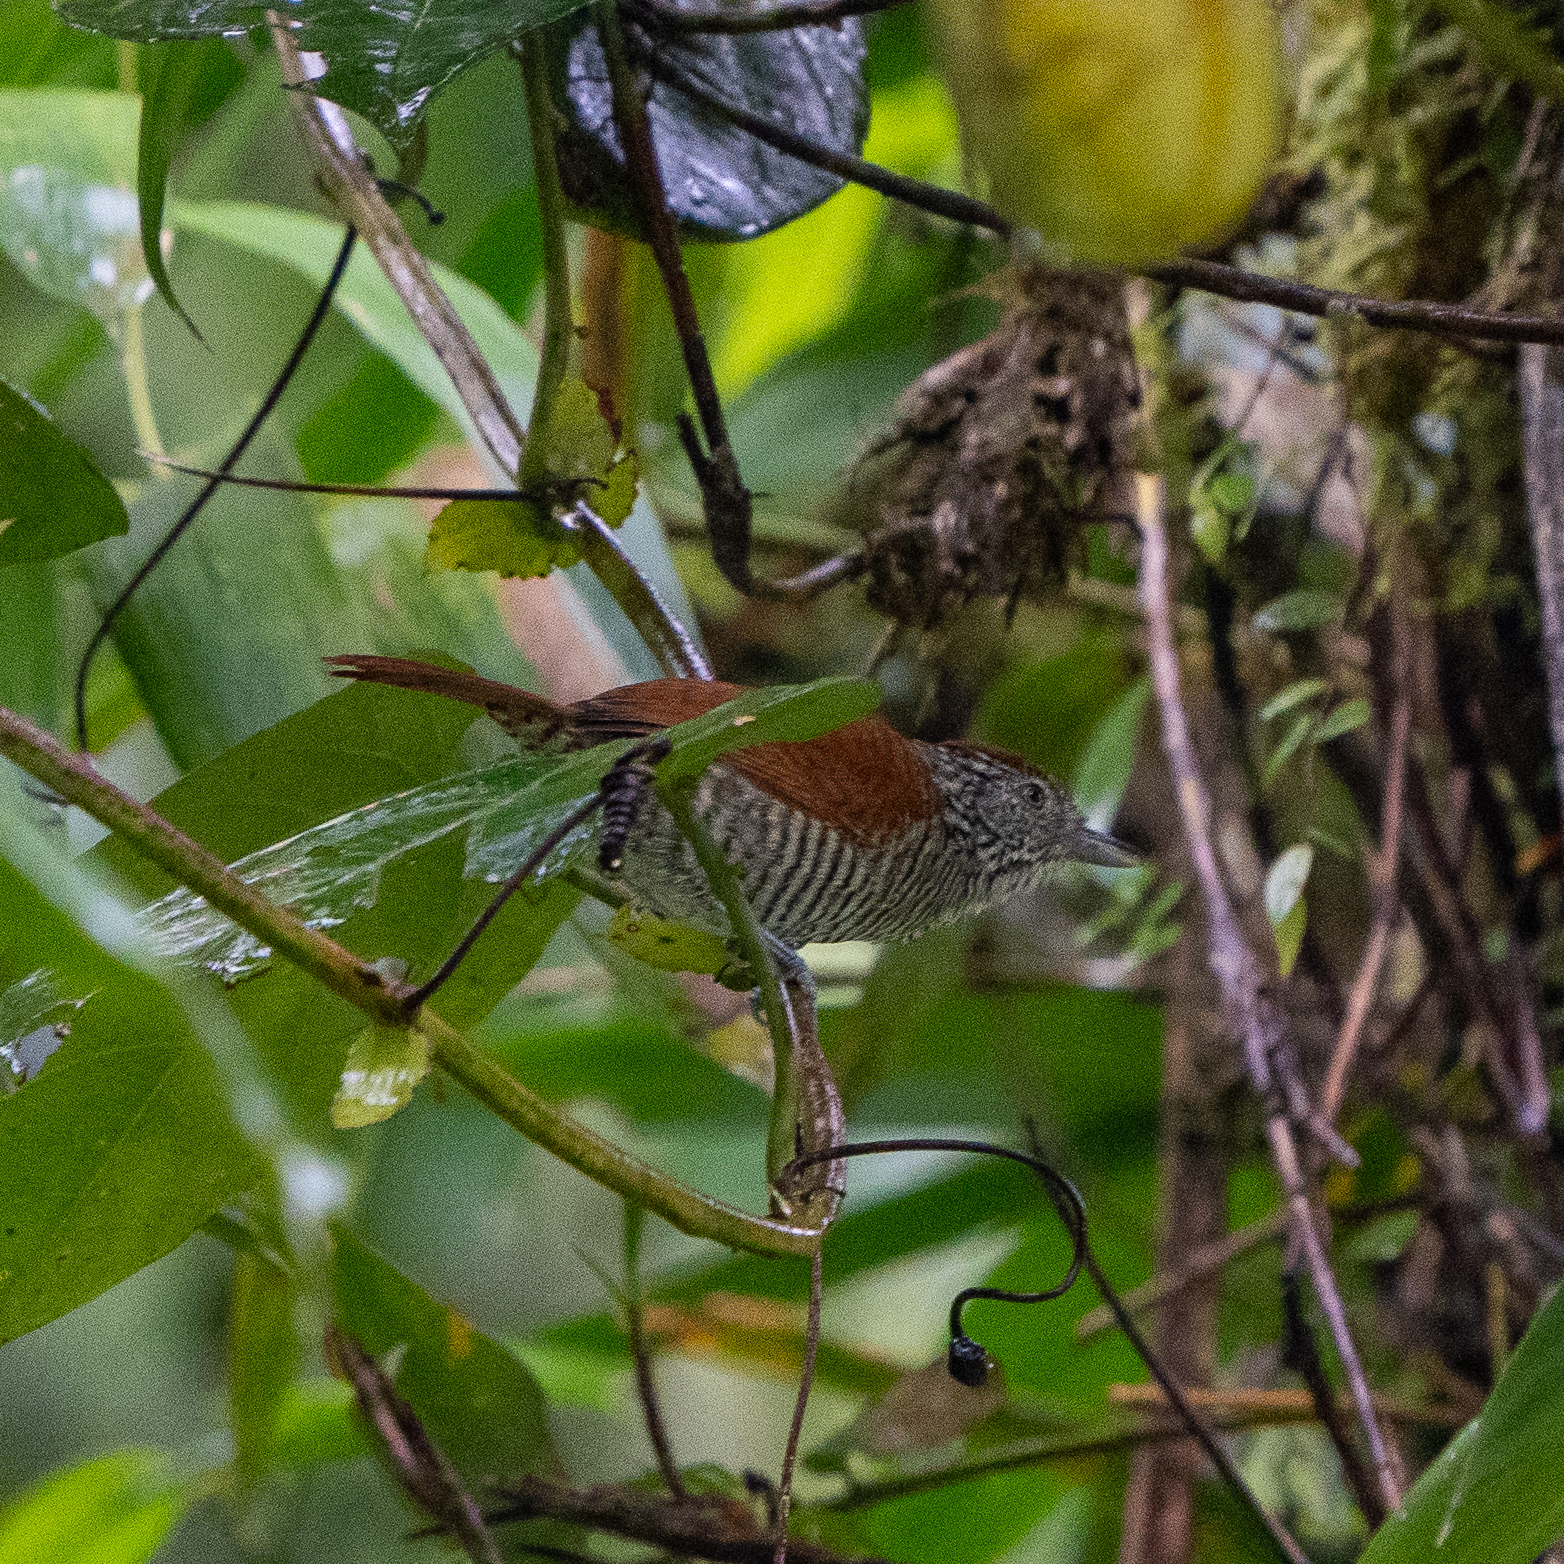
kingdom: Animalia
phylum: Chordata
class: Aves
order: Passeriformes
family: Thamnophilidae
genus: Thamnophilus
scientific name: Thamnophilus multistriatus
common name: Bar-crested antshrike
